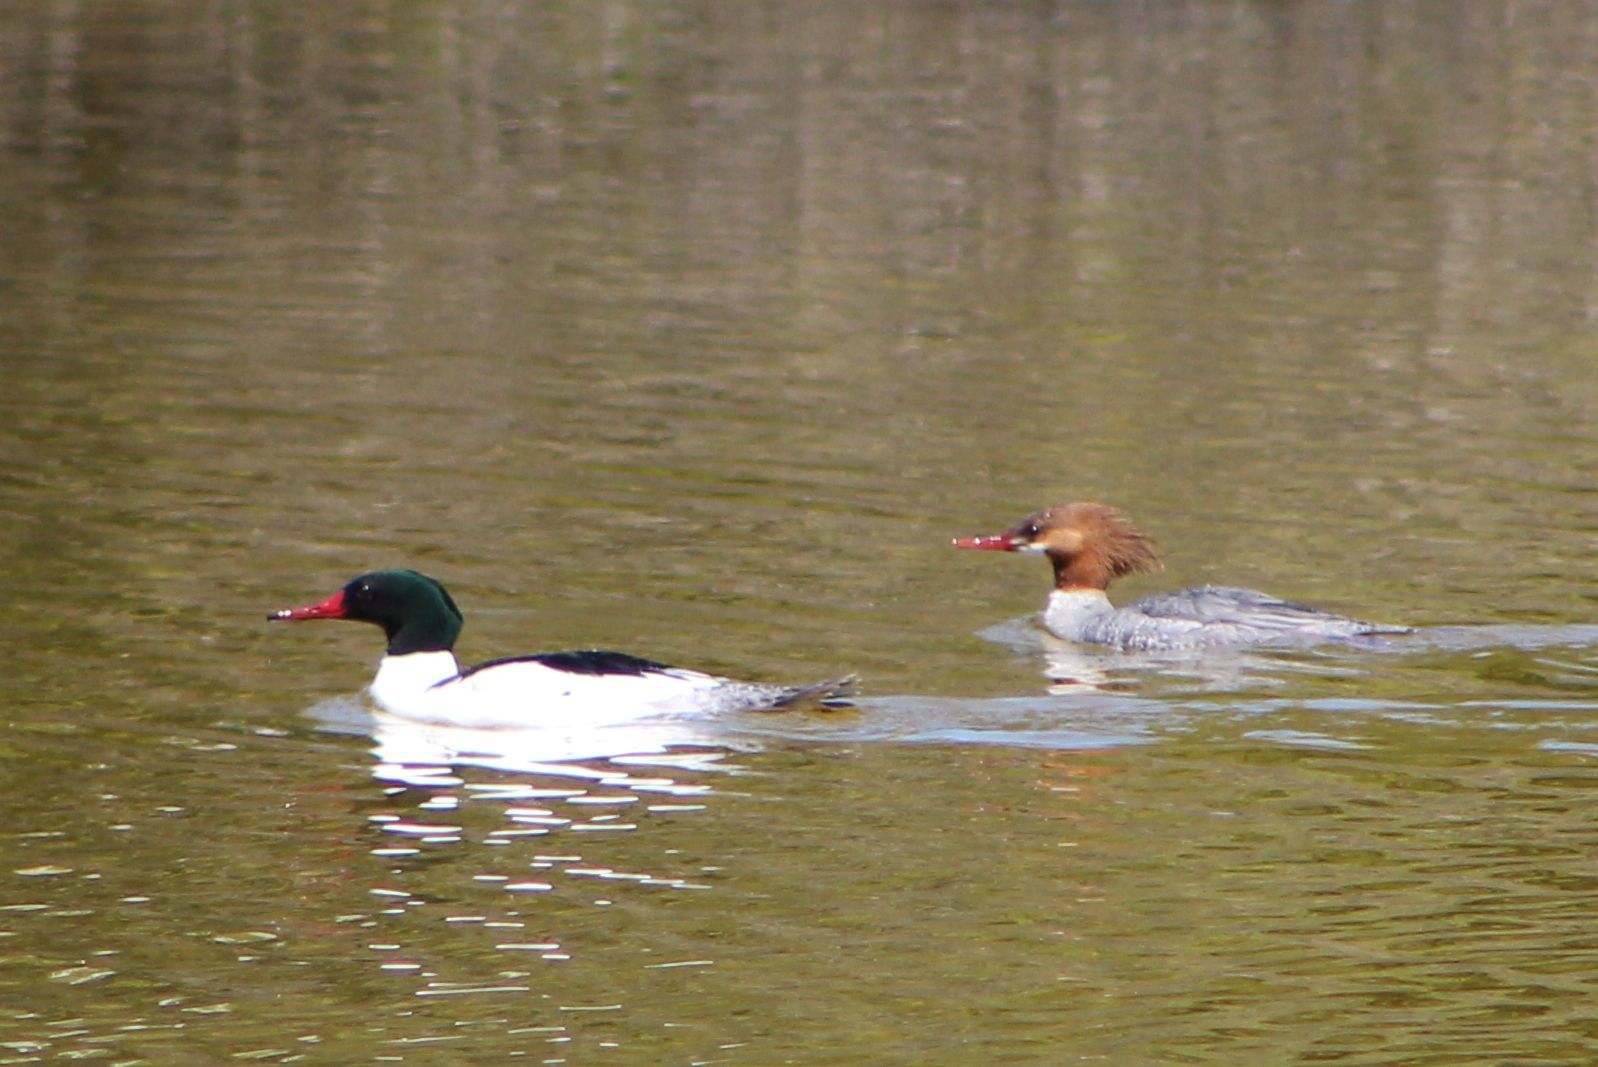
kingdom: Animalia
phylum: Chordata
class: Aves
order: Anseriformes
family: Anatidae
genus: Mergus
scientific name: Mergus merganser
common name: Common merganser
